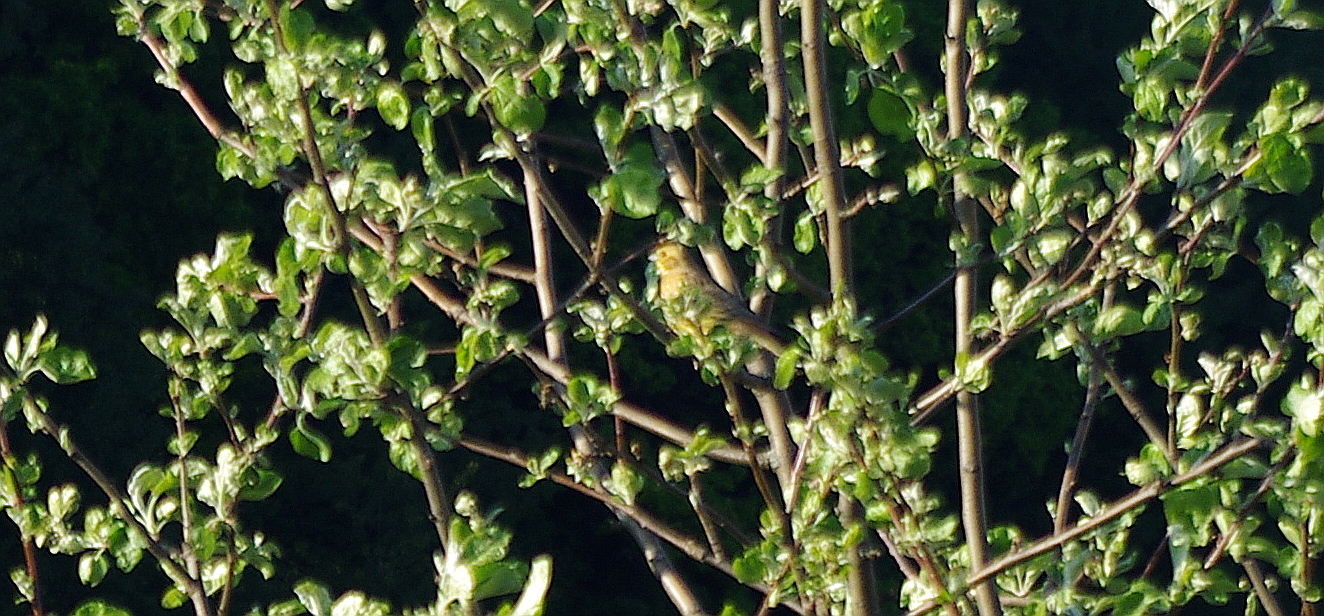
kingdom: Animalia
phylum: Chordata
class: Aves
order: Passeriformes
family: Emberizidae
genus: Emberiza
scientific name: Emberiza citrinella
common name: Yellowhammer
